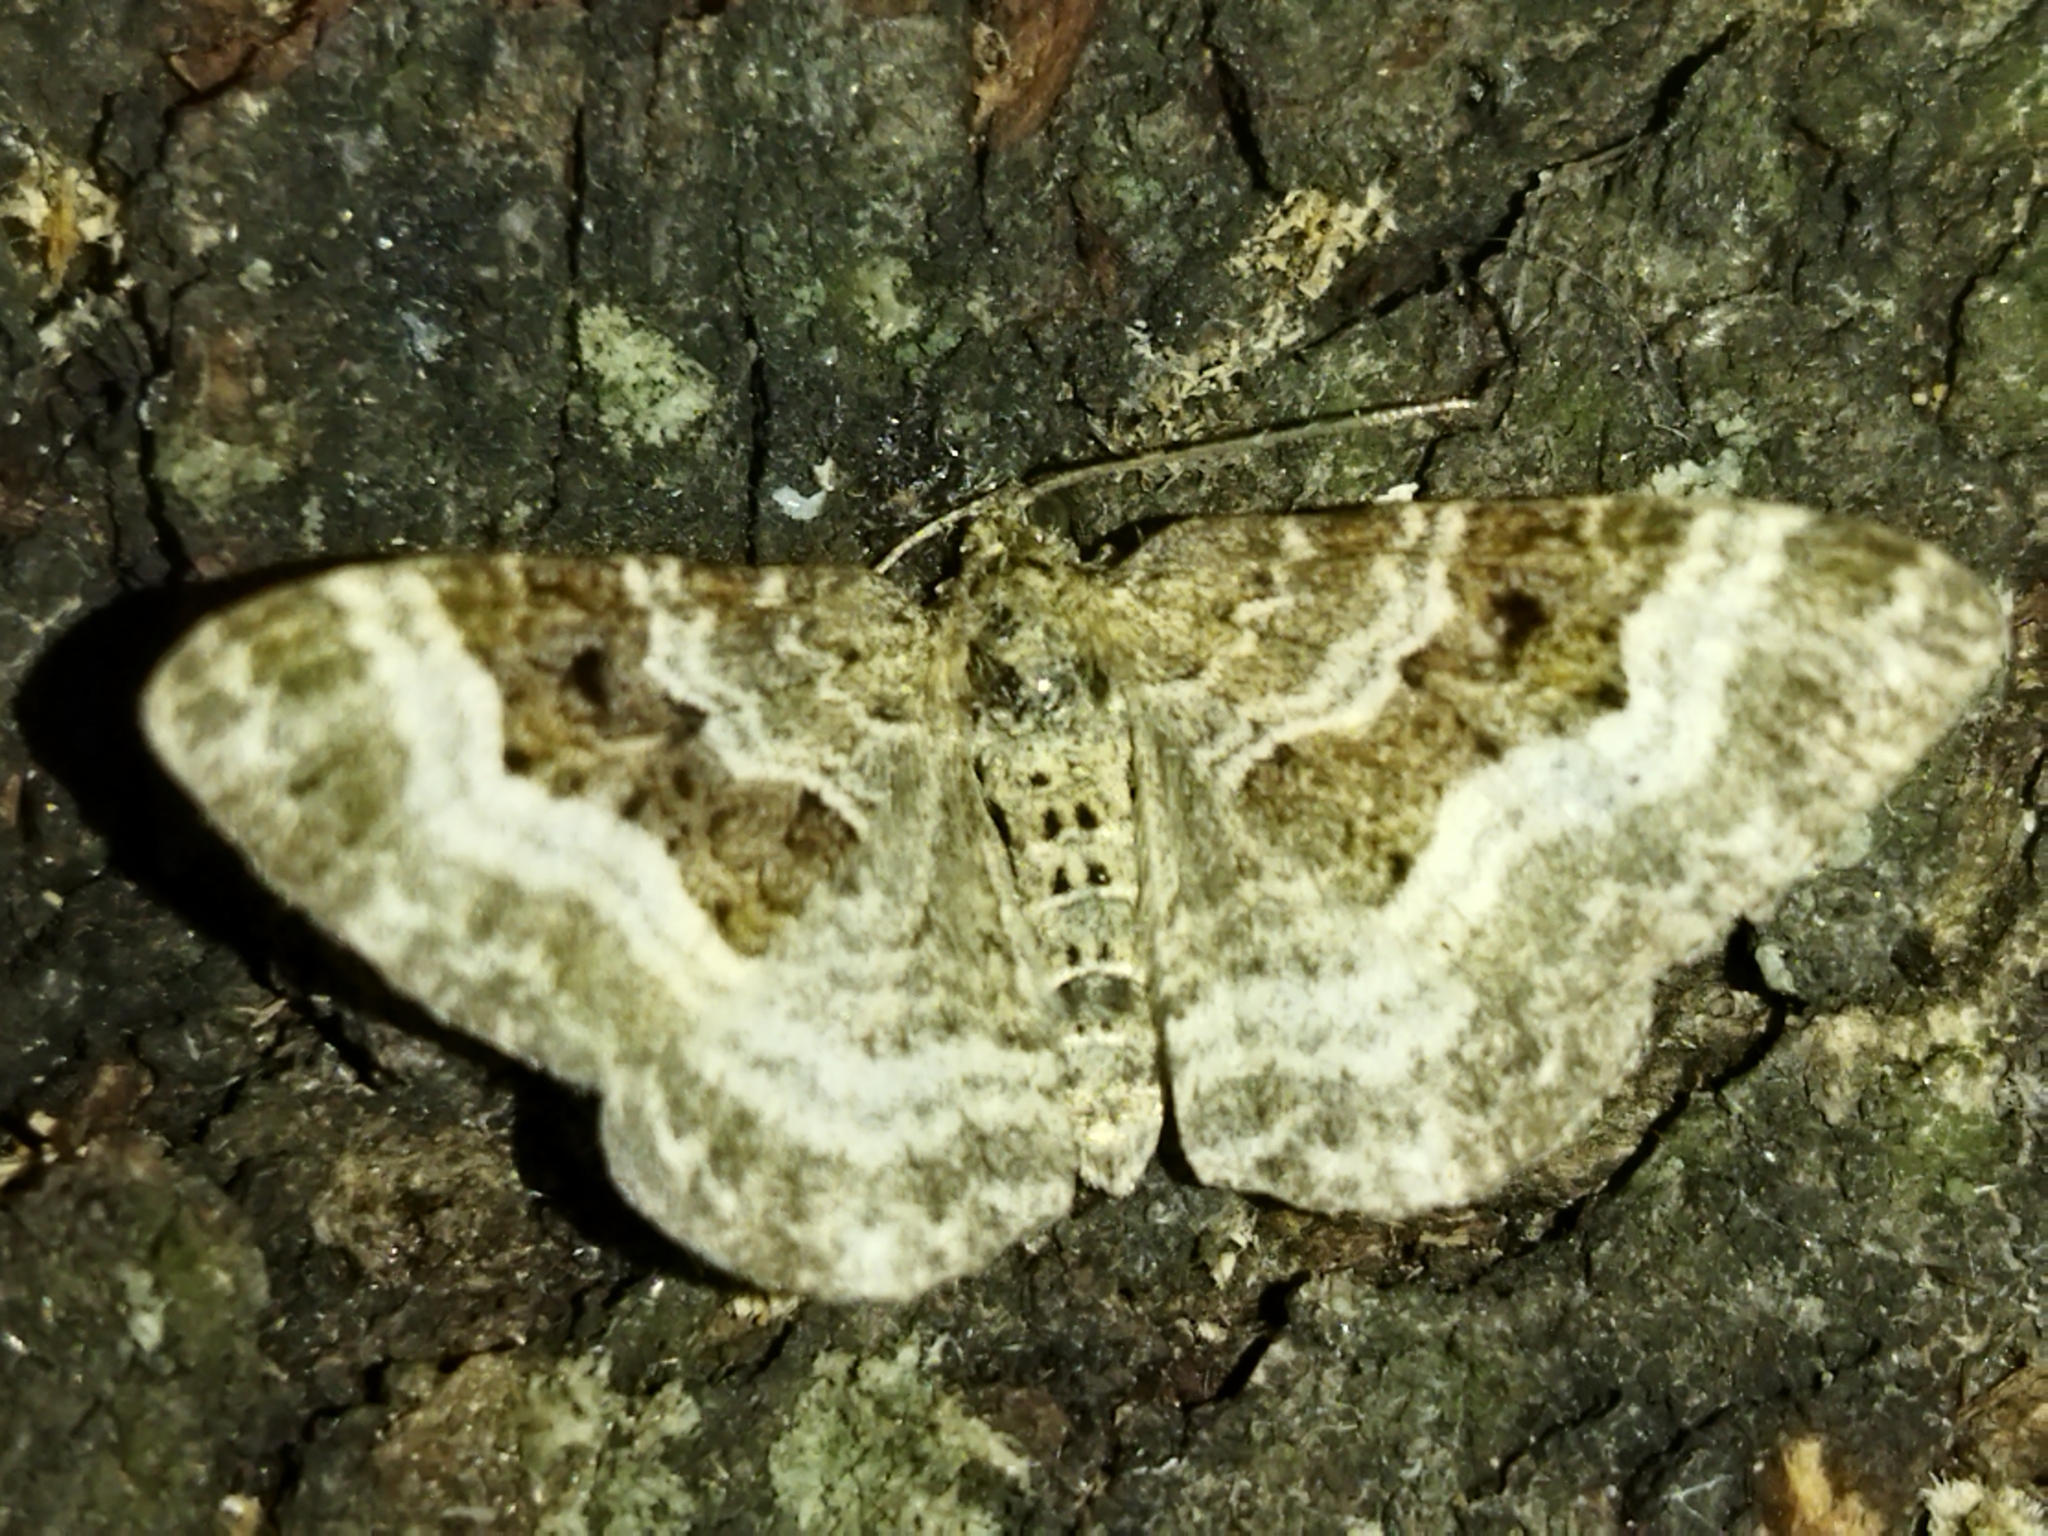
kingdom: Animalia
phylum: Arthropoda
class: Insecta
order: Lepidoptera
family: Geometridae
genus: Epirrhoe
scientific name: Epirrhoe alternata
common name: Common carpet
